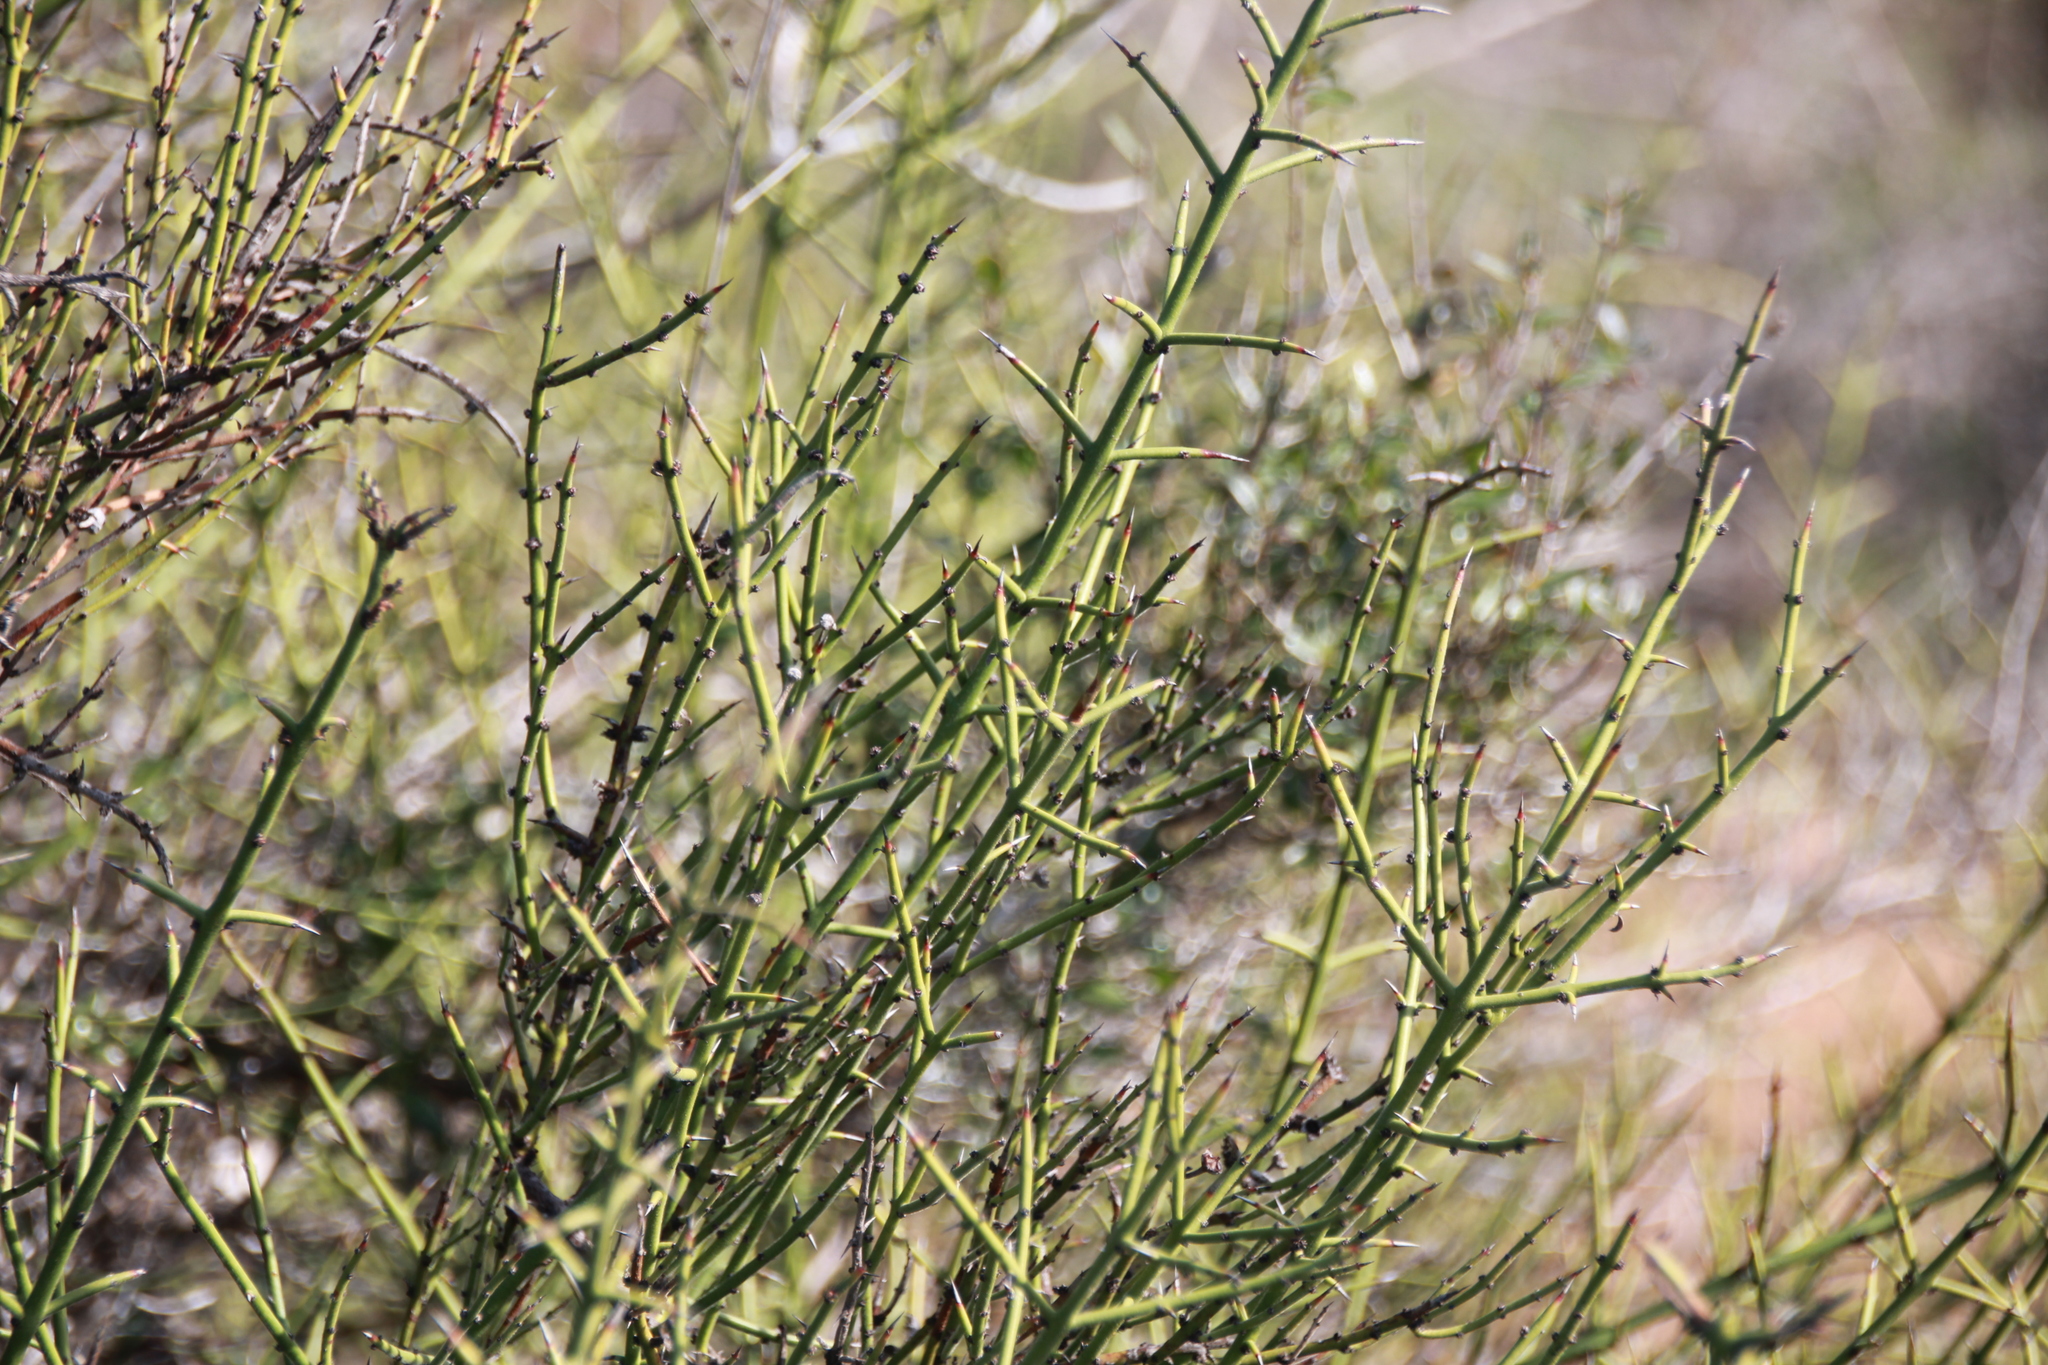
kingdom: Plantae
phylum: Tracheophyta
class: Magnoliopsida
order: Rosales
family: Rhamnaceae
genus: Adolphia
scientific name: Adolphia californica
